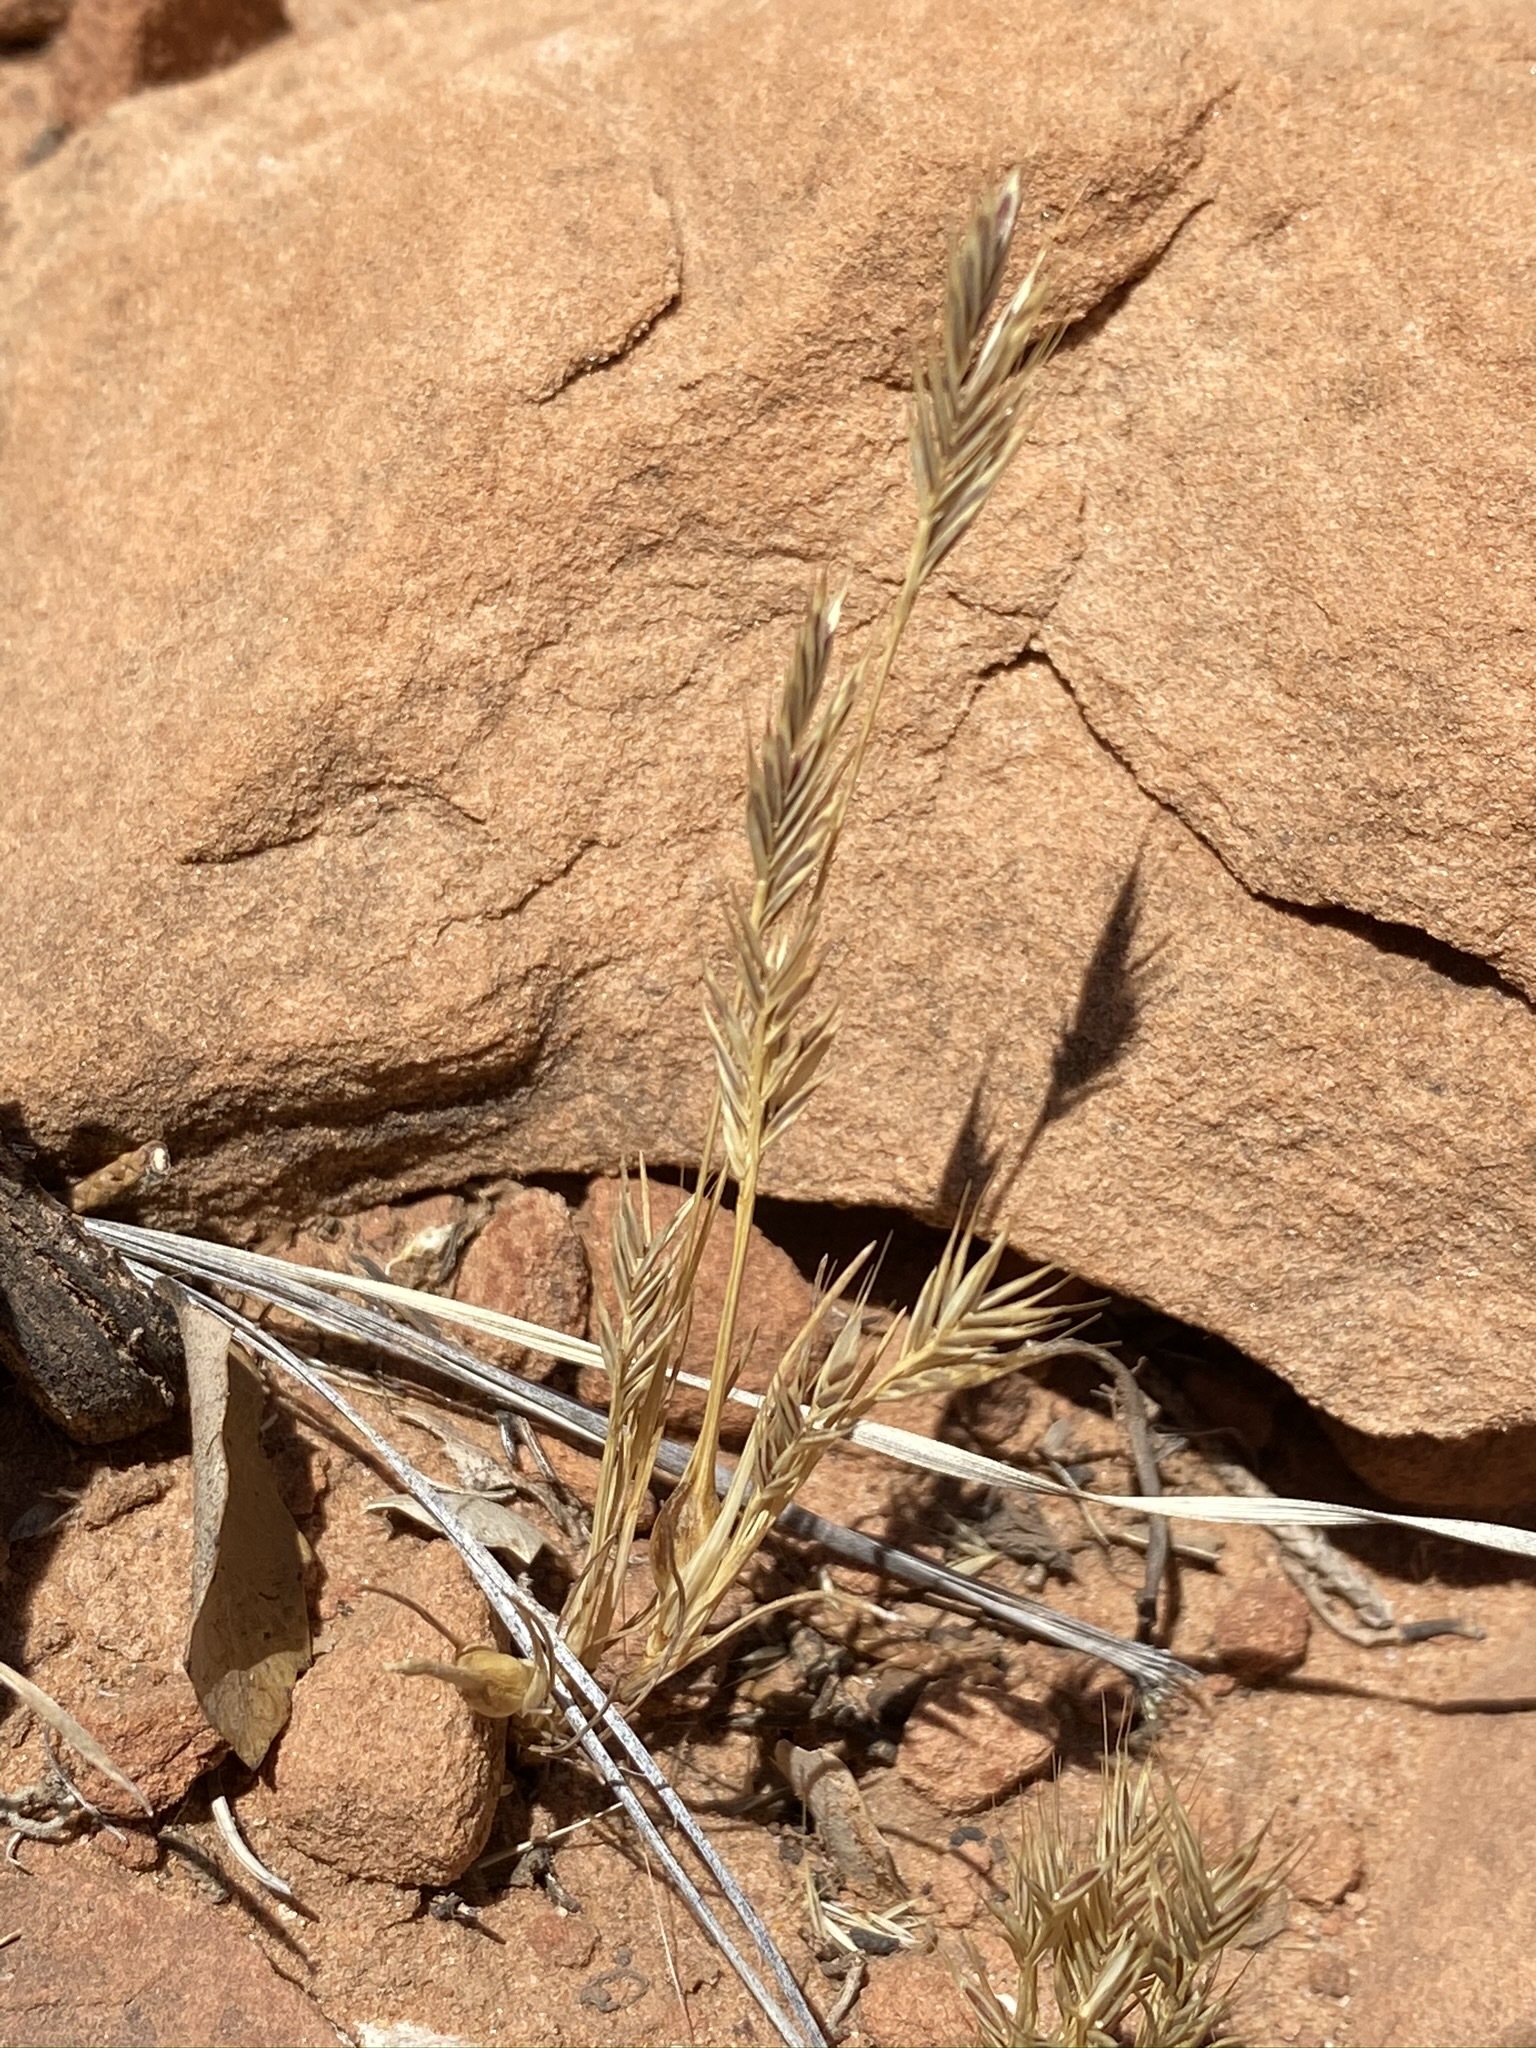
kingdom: Plantae
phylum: Tracheophyta
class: Liliopsida
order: Poales
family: Poaceae
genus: Festuca
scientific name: Festuca octoflora
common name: Sixweeks grass
